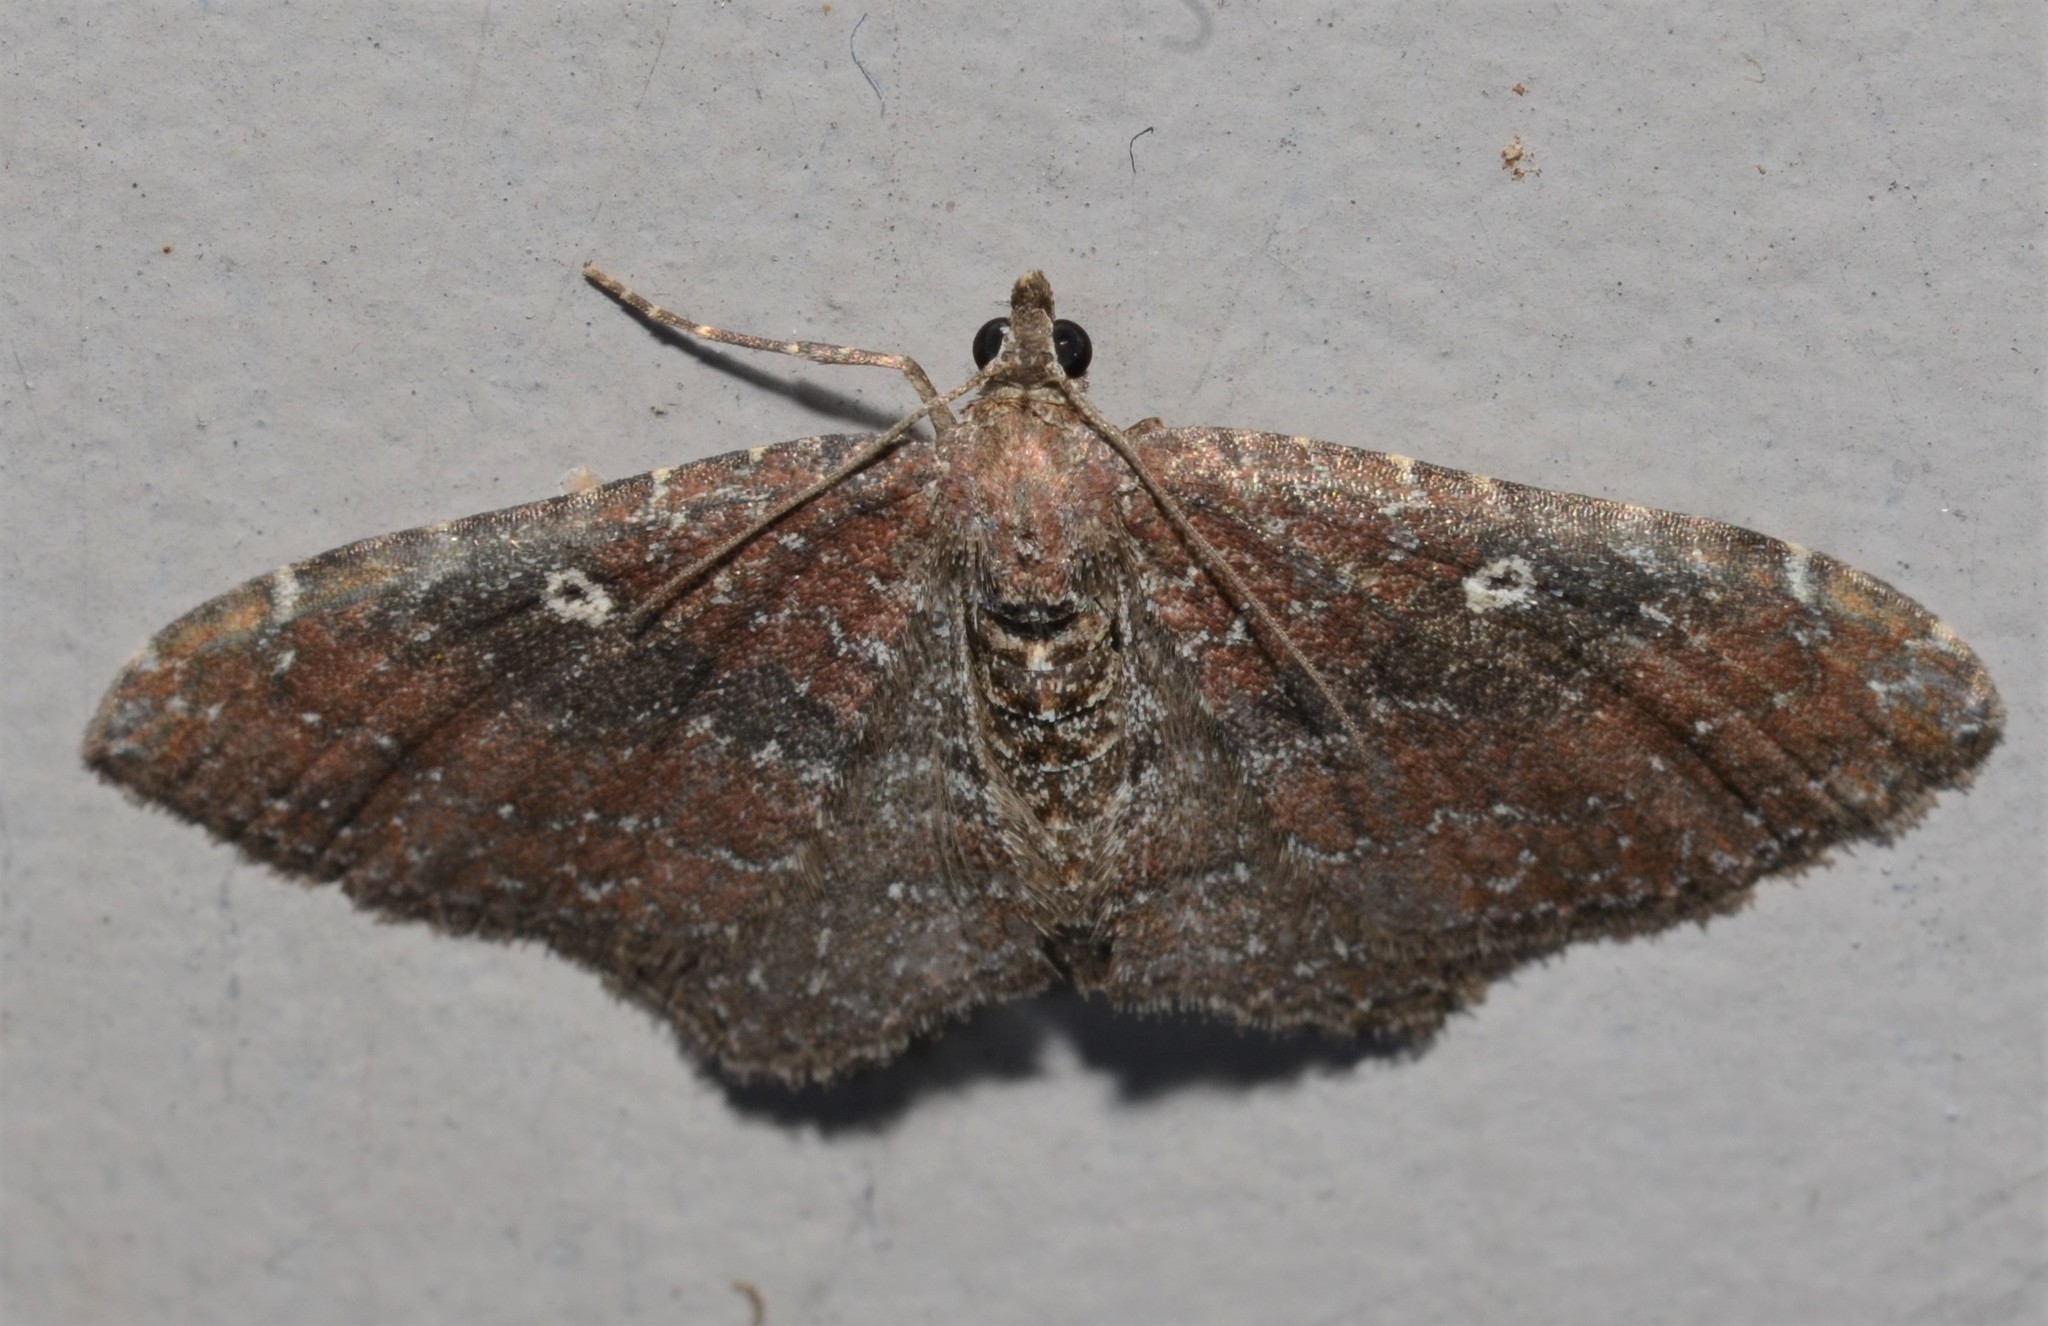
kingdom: Animalia
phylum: Arthropoda
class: Insecta
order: Lepidoptera
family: Geometridae
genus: Orthonama
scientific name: Orthonama obstipata
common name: The gem
